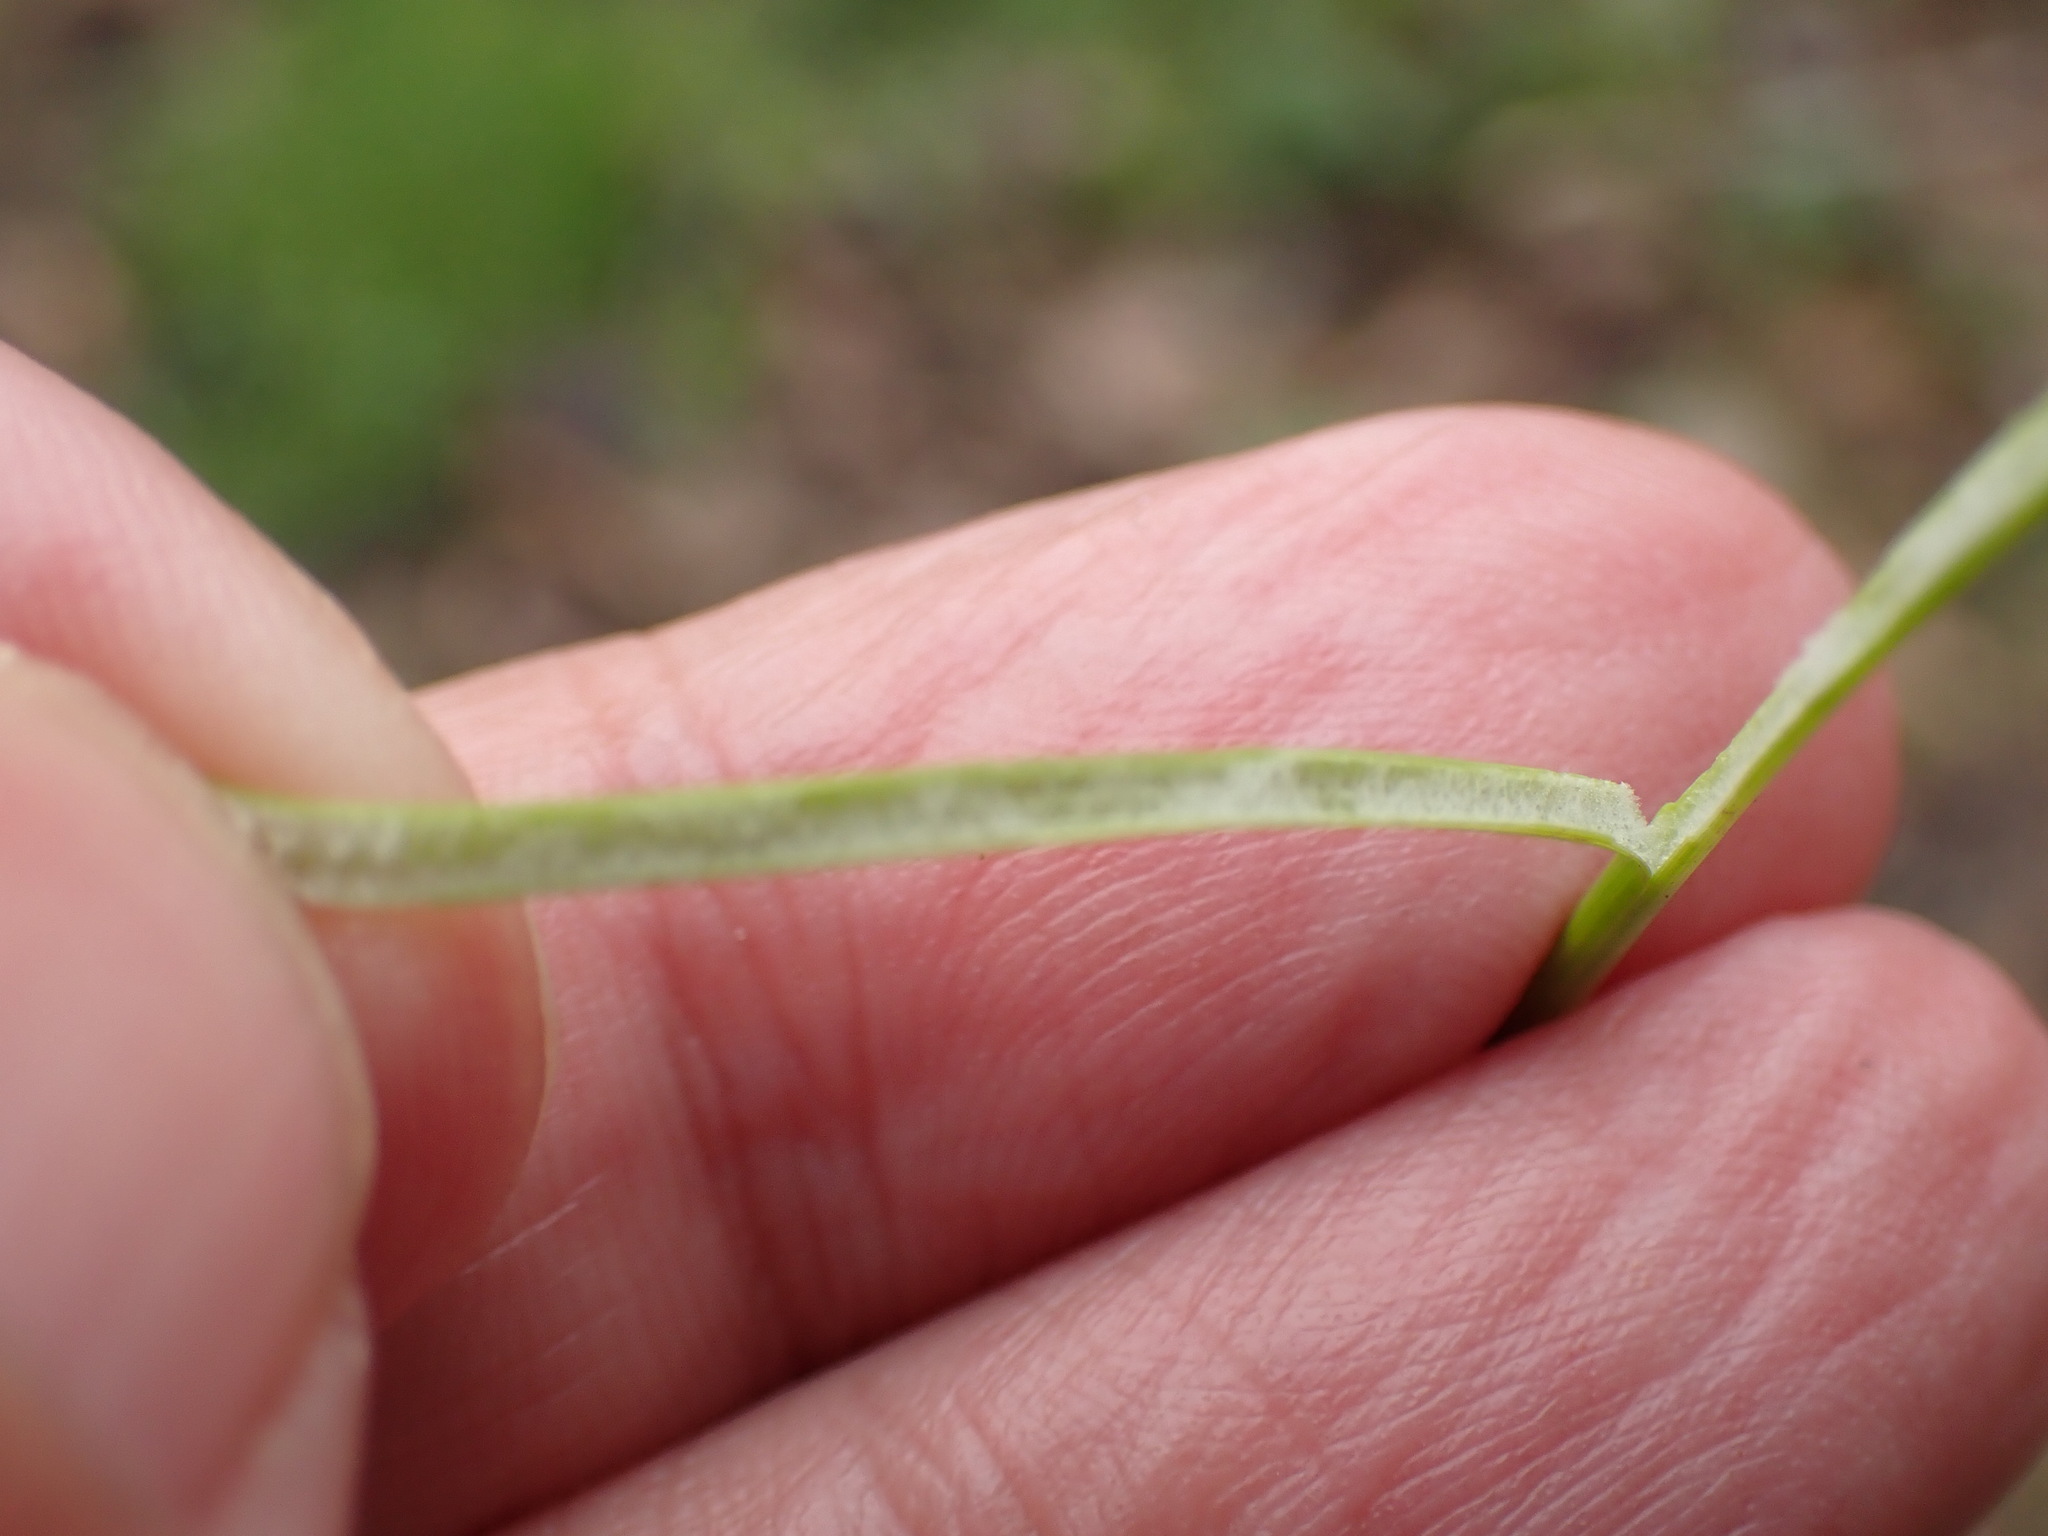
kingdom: Plantae
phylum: Tracheophyta
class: Liliopsida
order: Poales
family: Juncaceae
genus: Juncus
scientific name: Juncus effusus
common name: Soft rush
